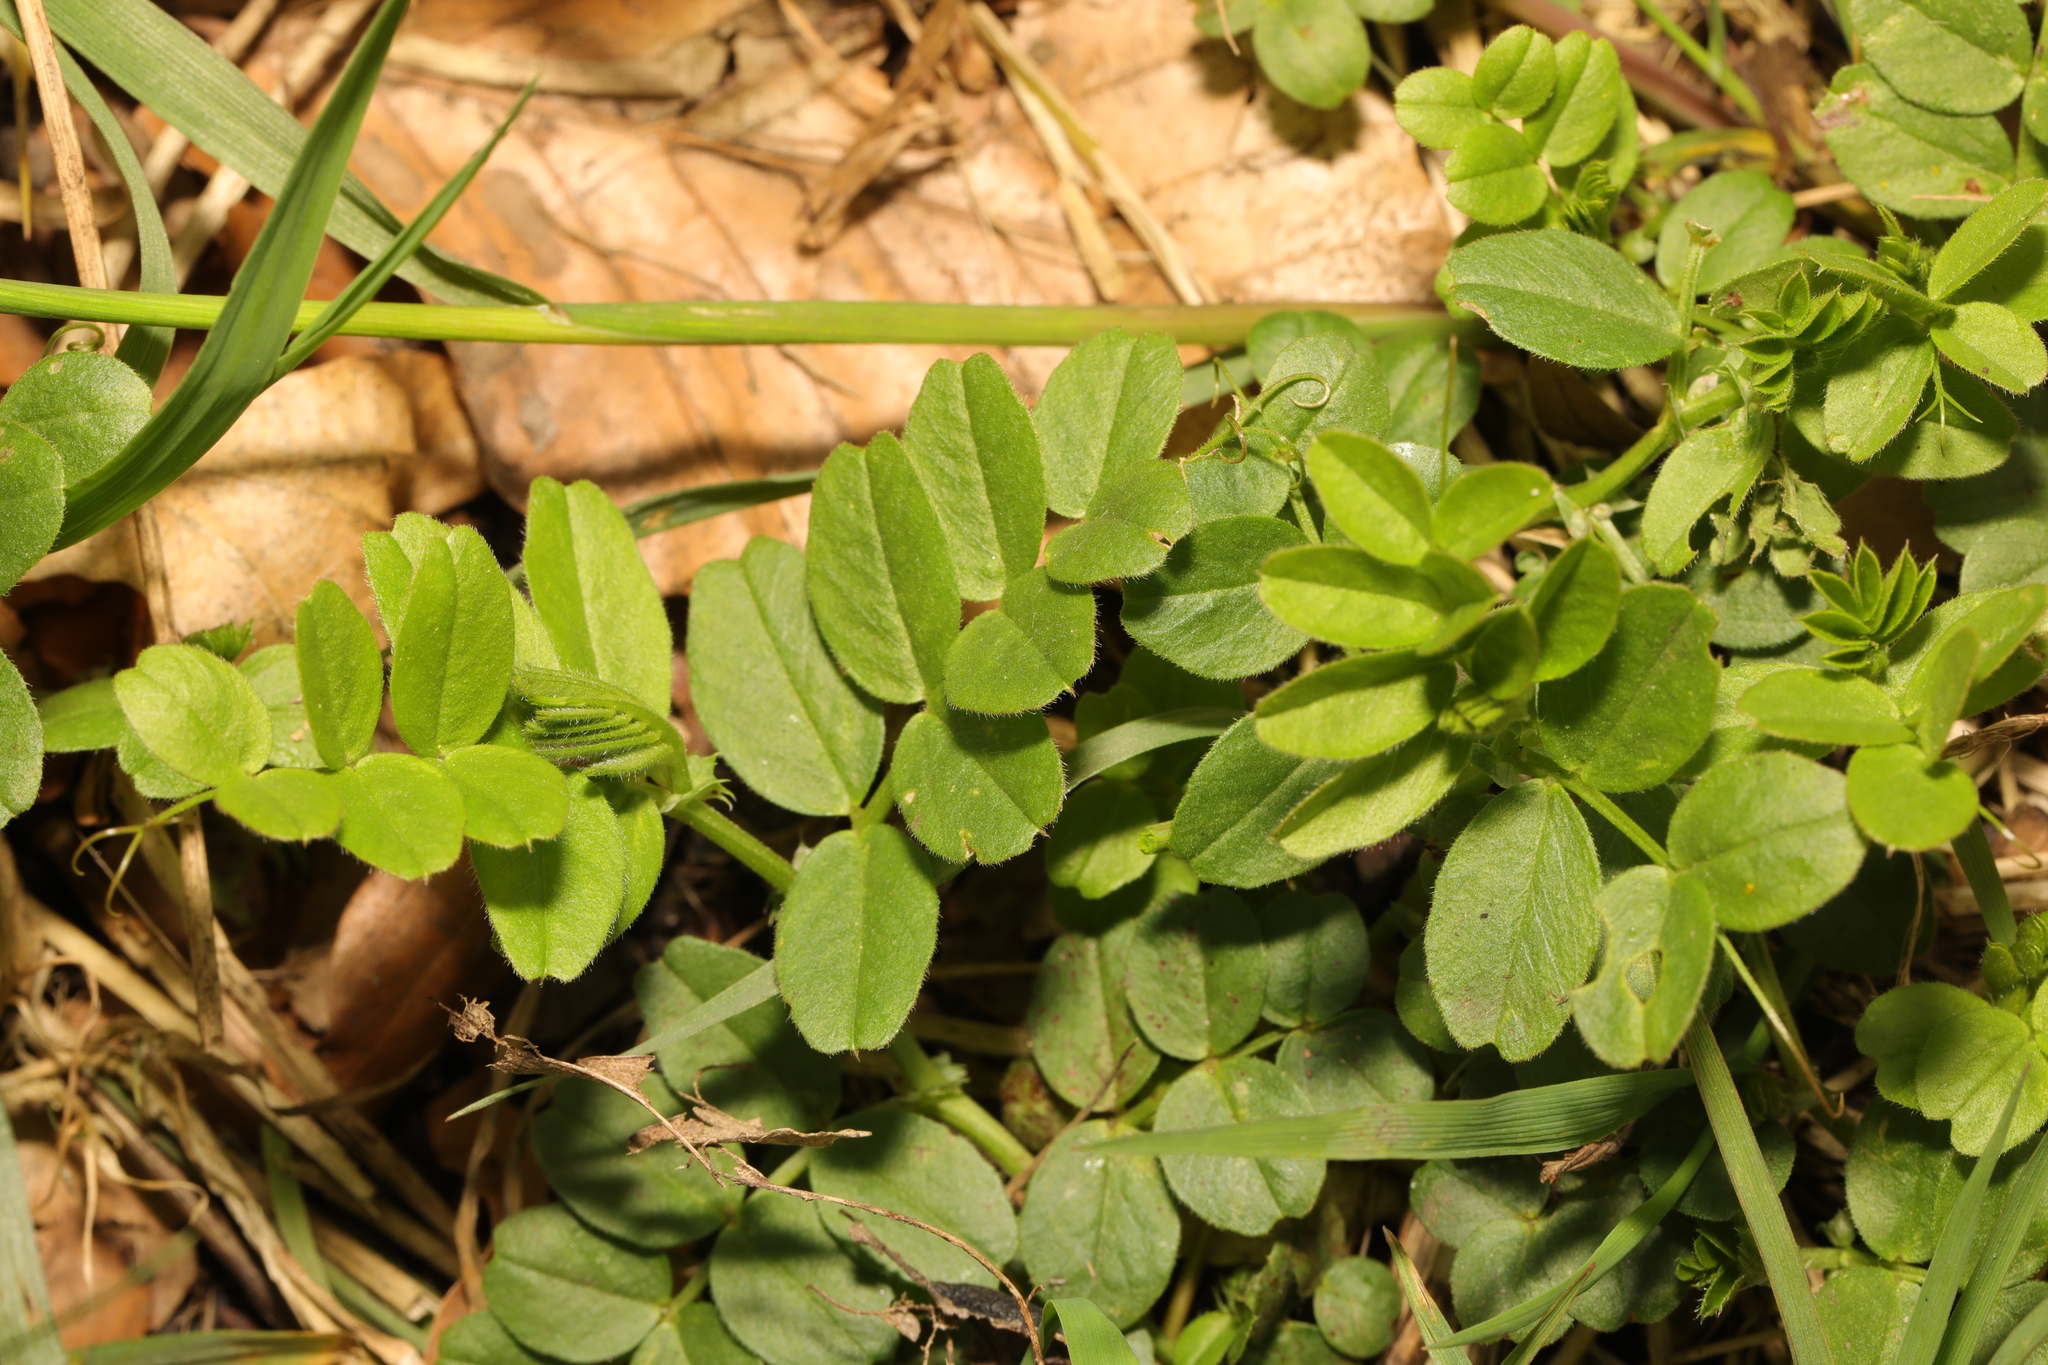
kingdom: Plantae
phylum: Tracheophyta
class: Magnoliopsida
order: Fabales
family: Fabaceae
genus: Vicia
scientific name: Vicia sepium
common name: Bush vetch
